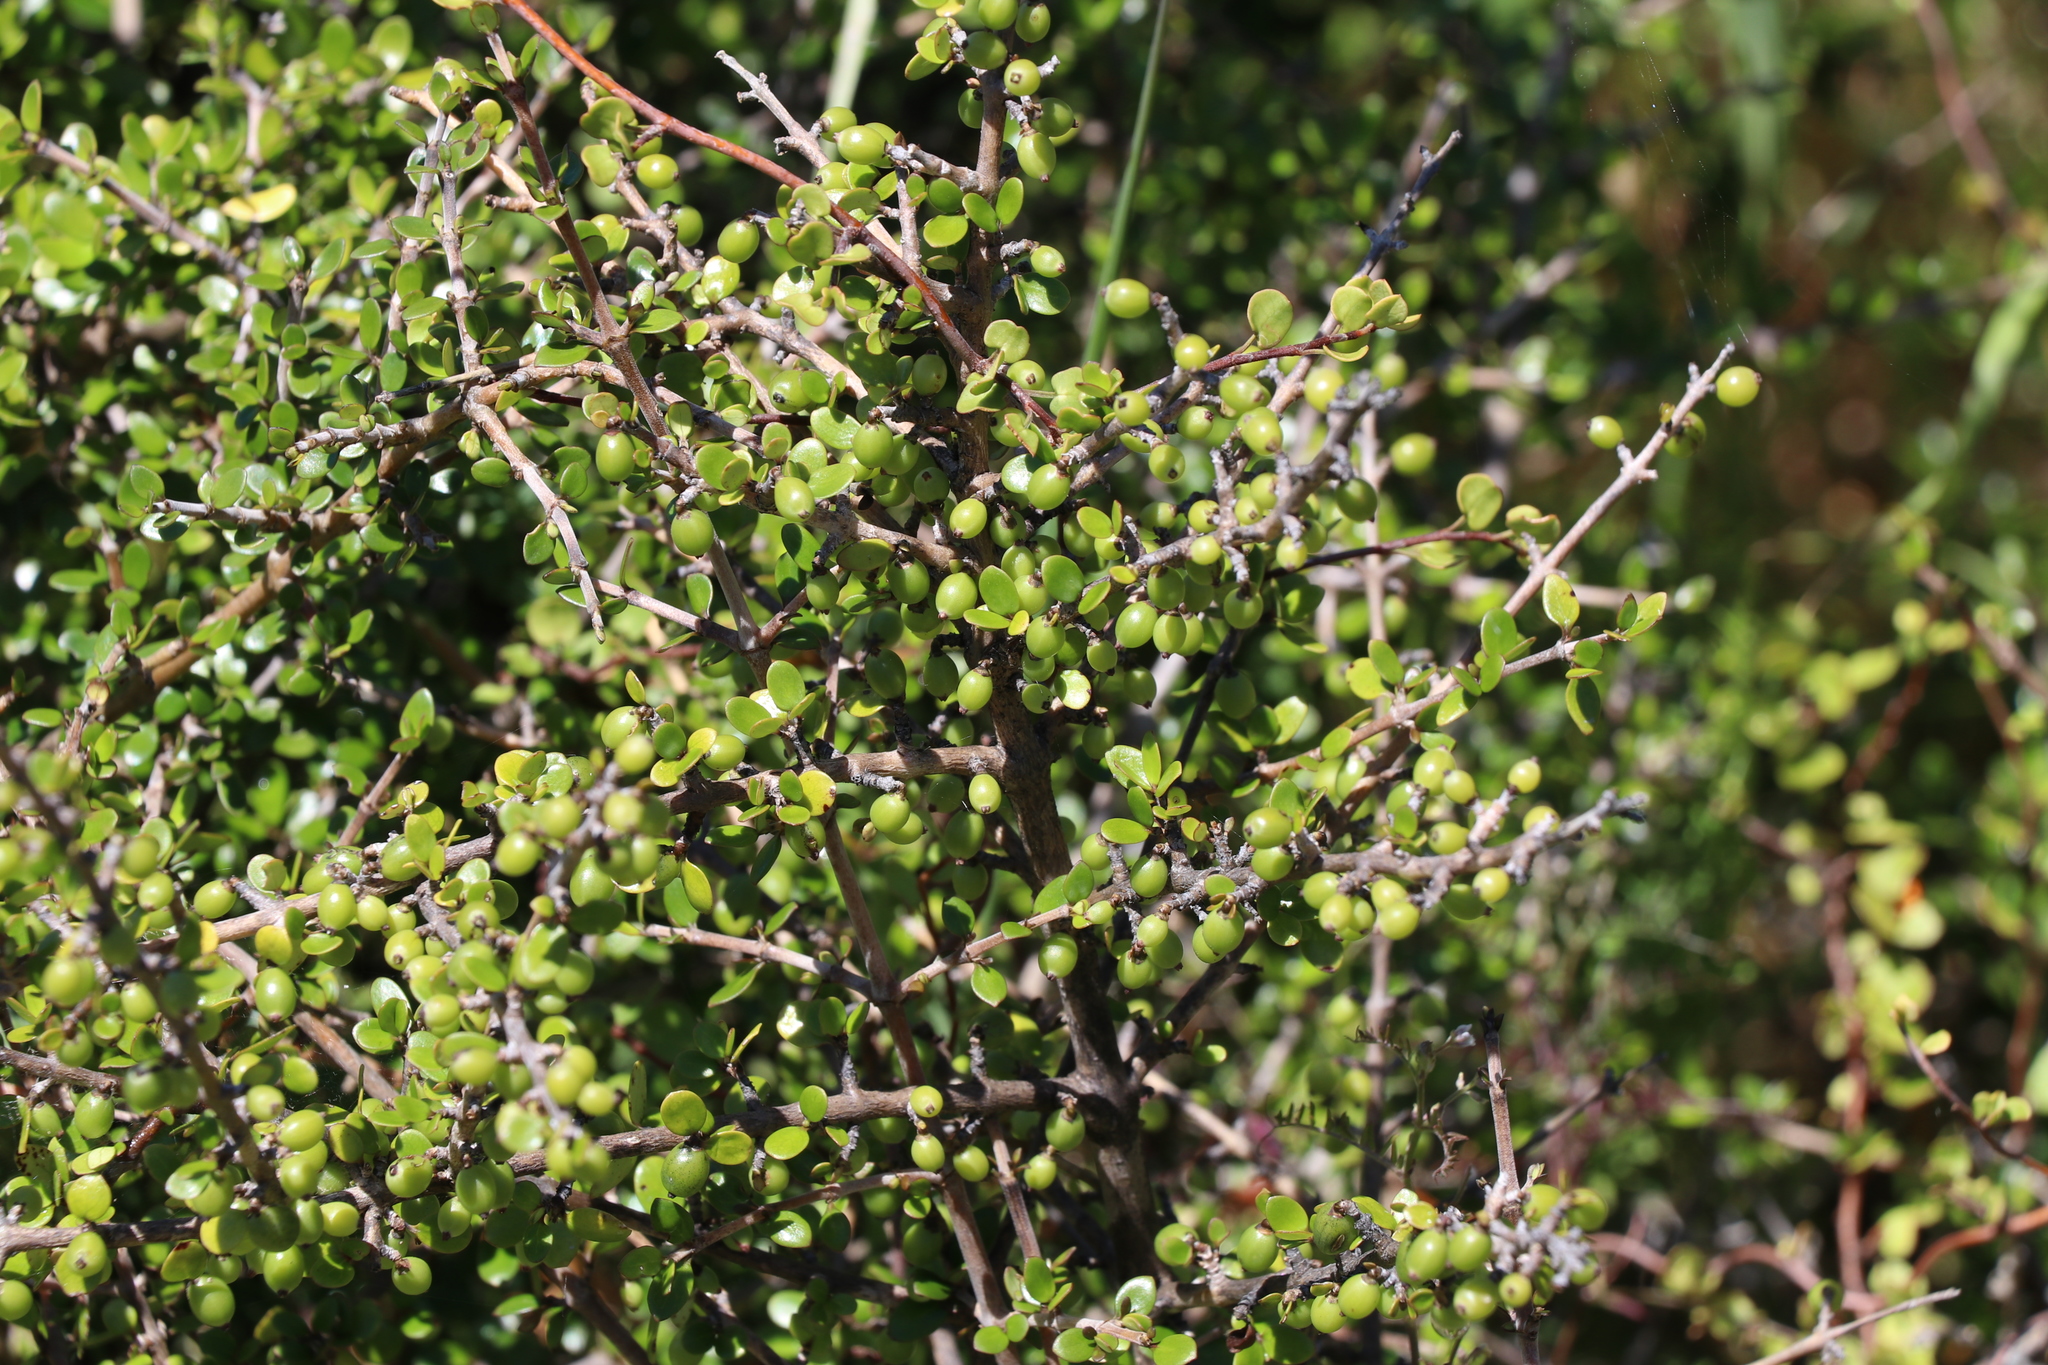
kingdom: Plantae
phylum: Tracheophyta
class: Magnoliopsida
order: Gentianales
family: Rubiaceae
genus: Coprosma
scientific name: Coprosma crassifolia
